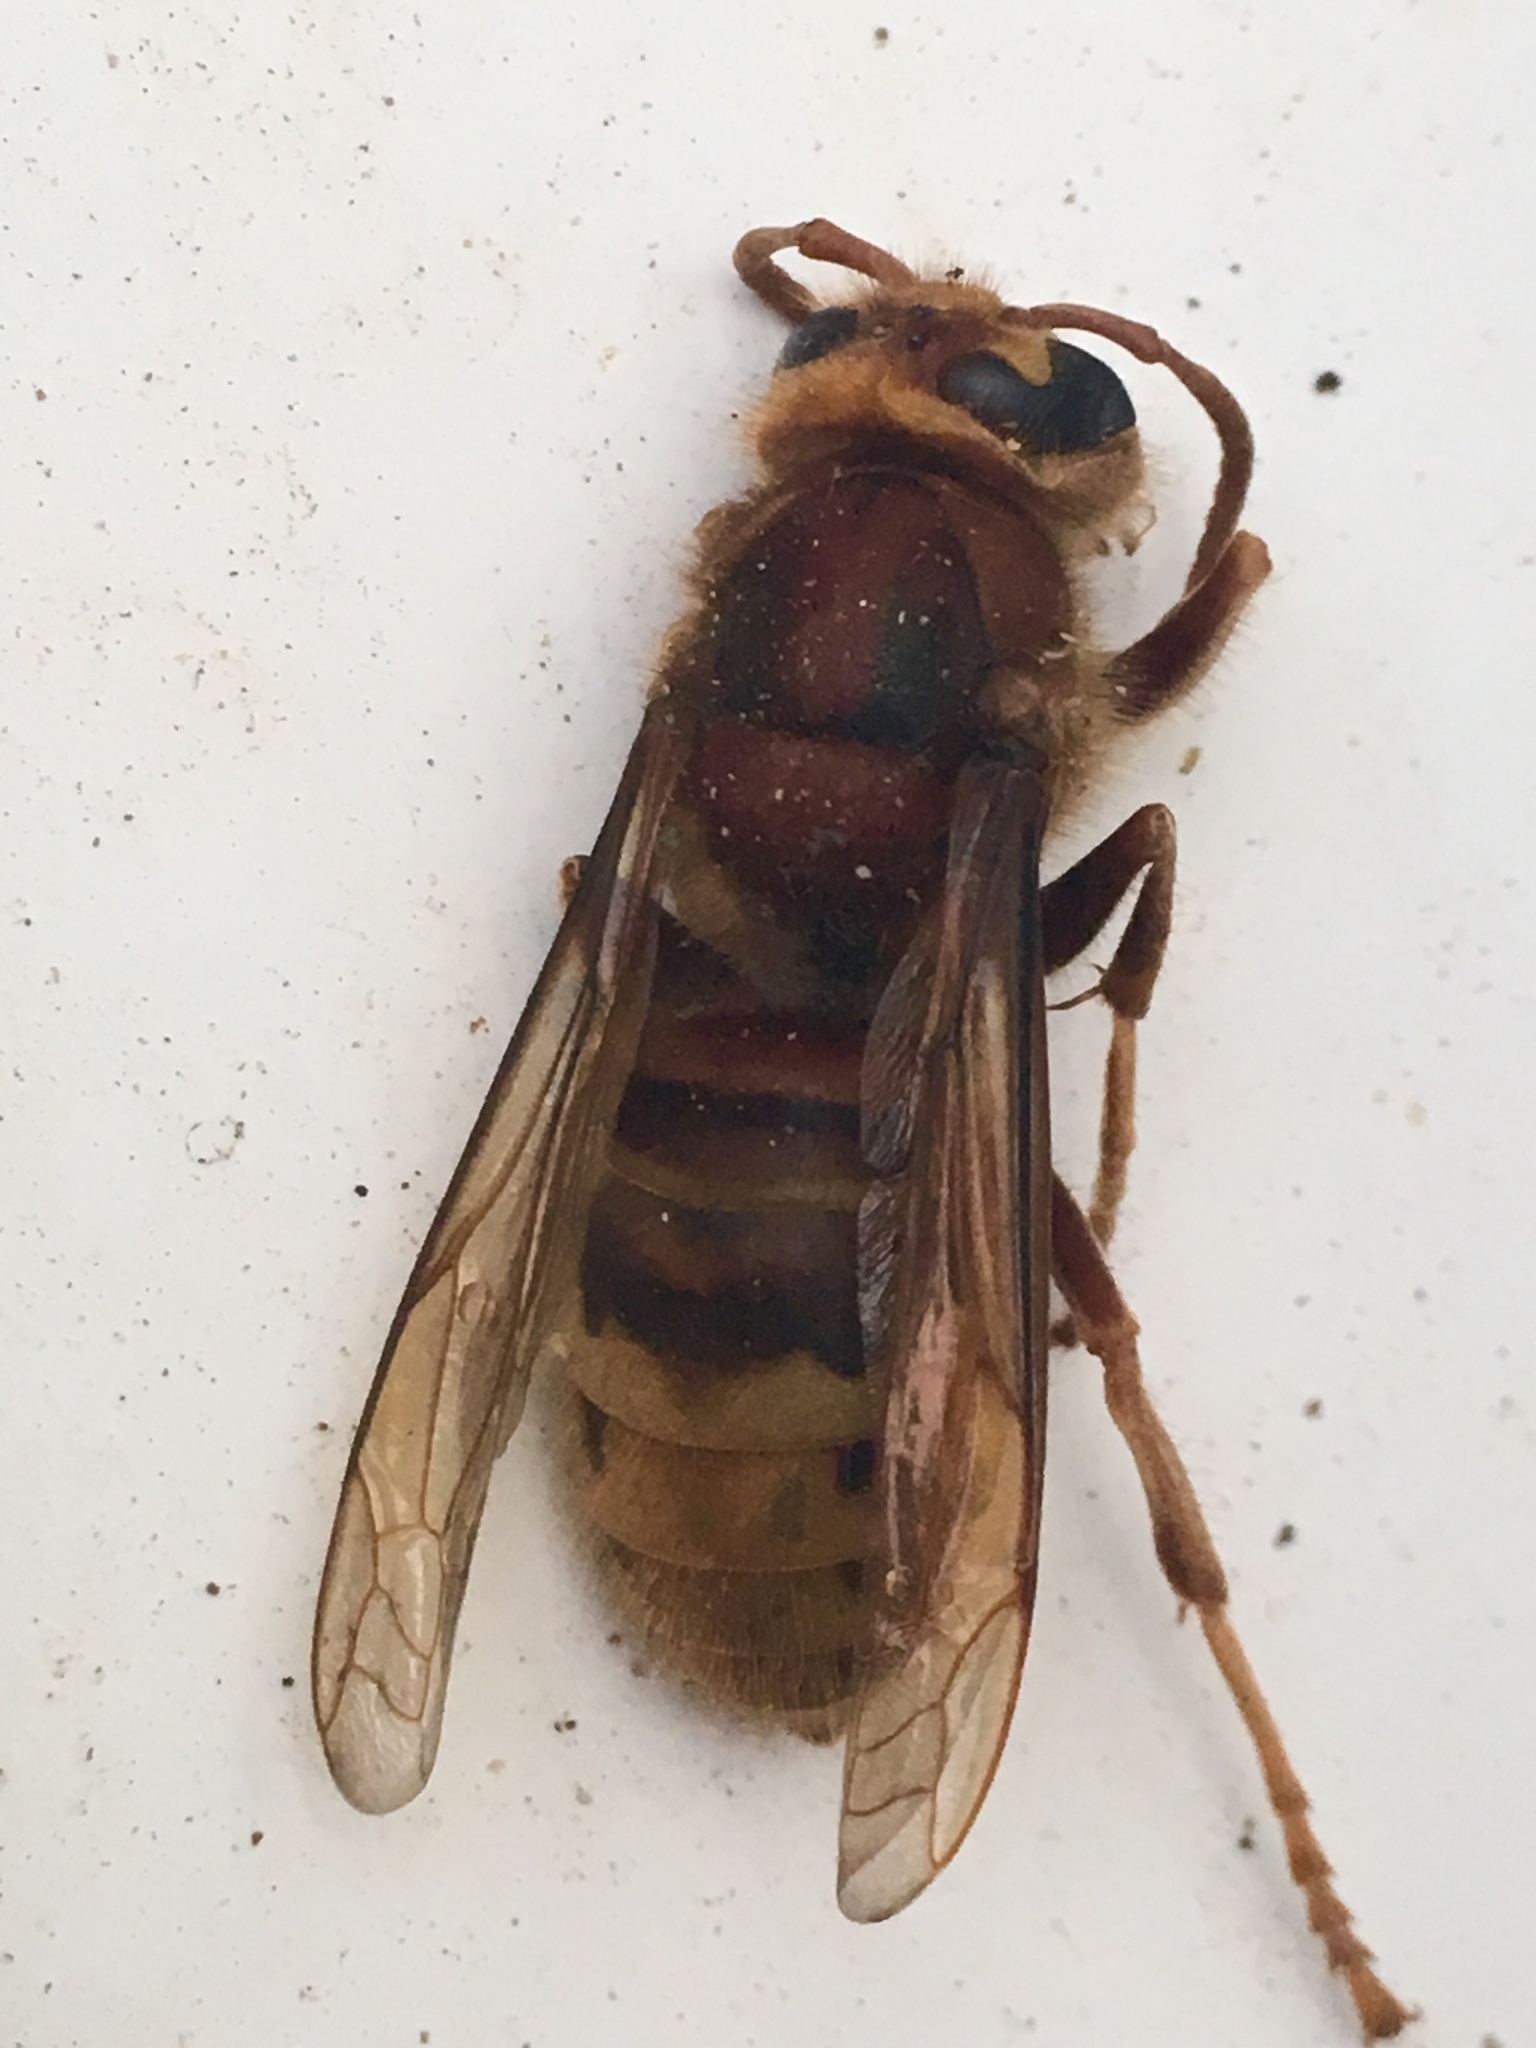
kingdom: Animalia
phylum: Arthropoda
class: Insecta
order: Hymenoptera
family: Vespidae
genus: Vespa
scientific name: Vespa crabro
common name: Hornet
